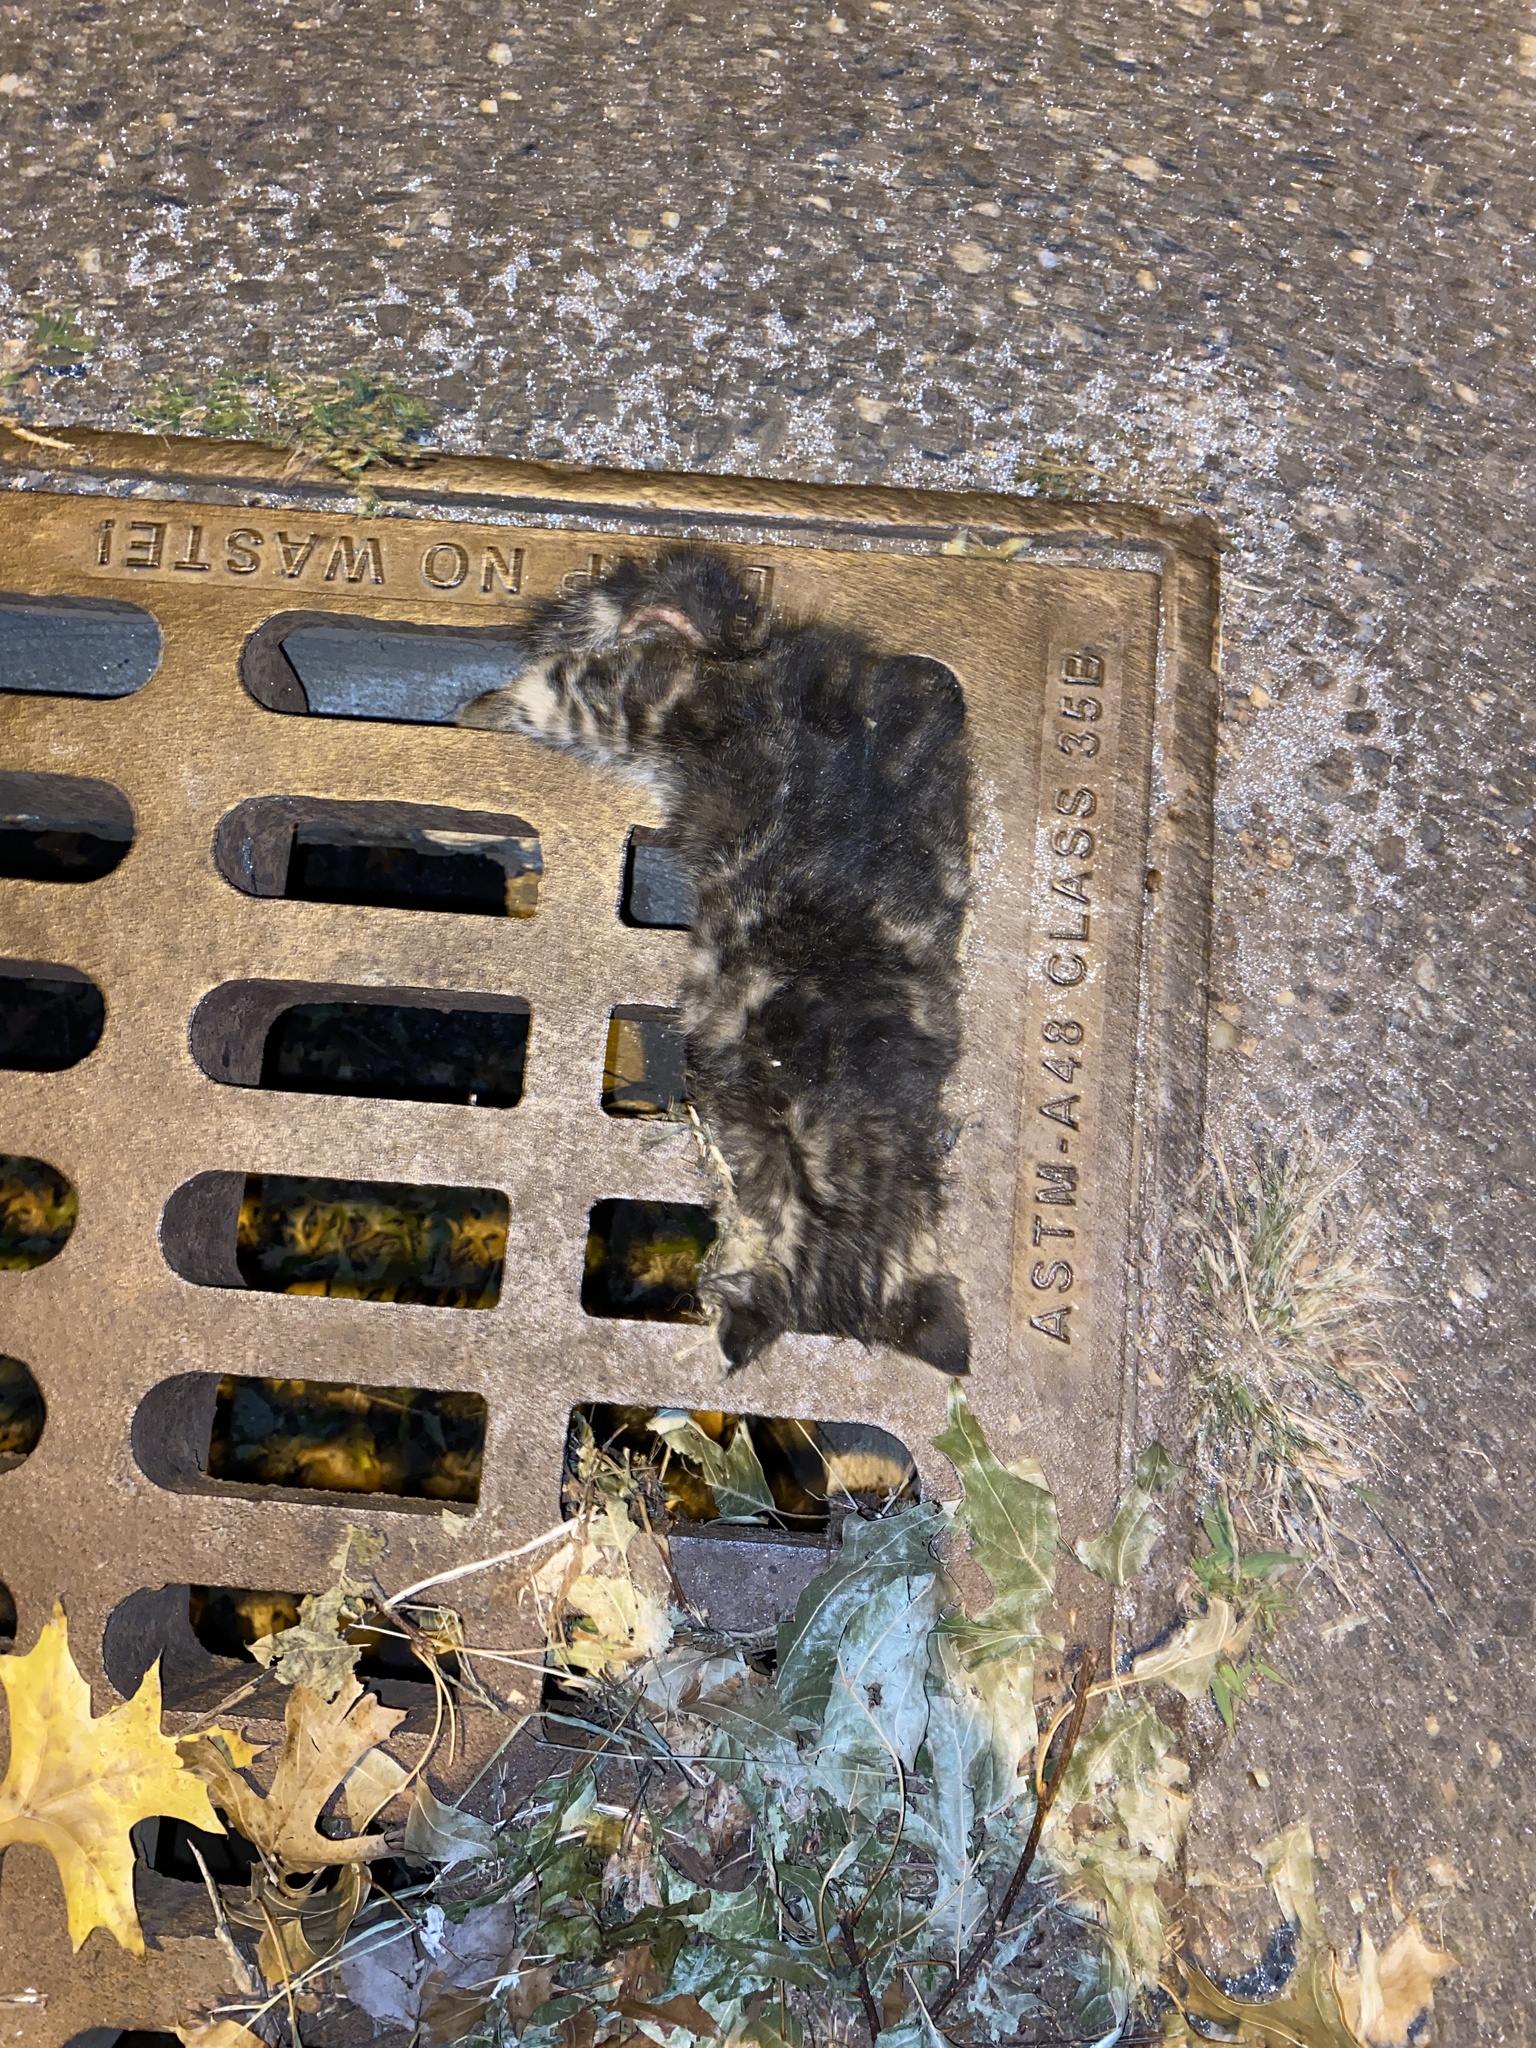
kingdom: Animalia
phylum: Chordata
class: Mammalia
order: Carnivora
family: Felidae
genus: Felis
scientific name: Felis catus
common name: Domestic cat
